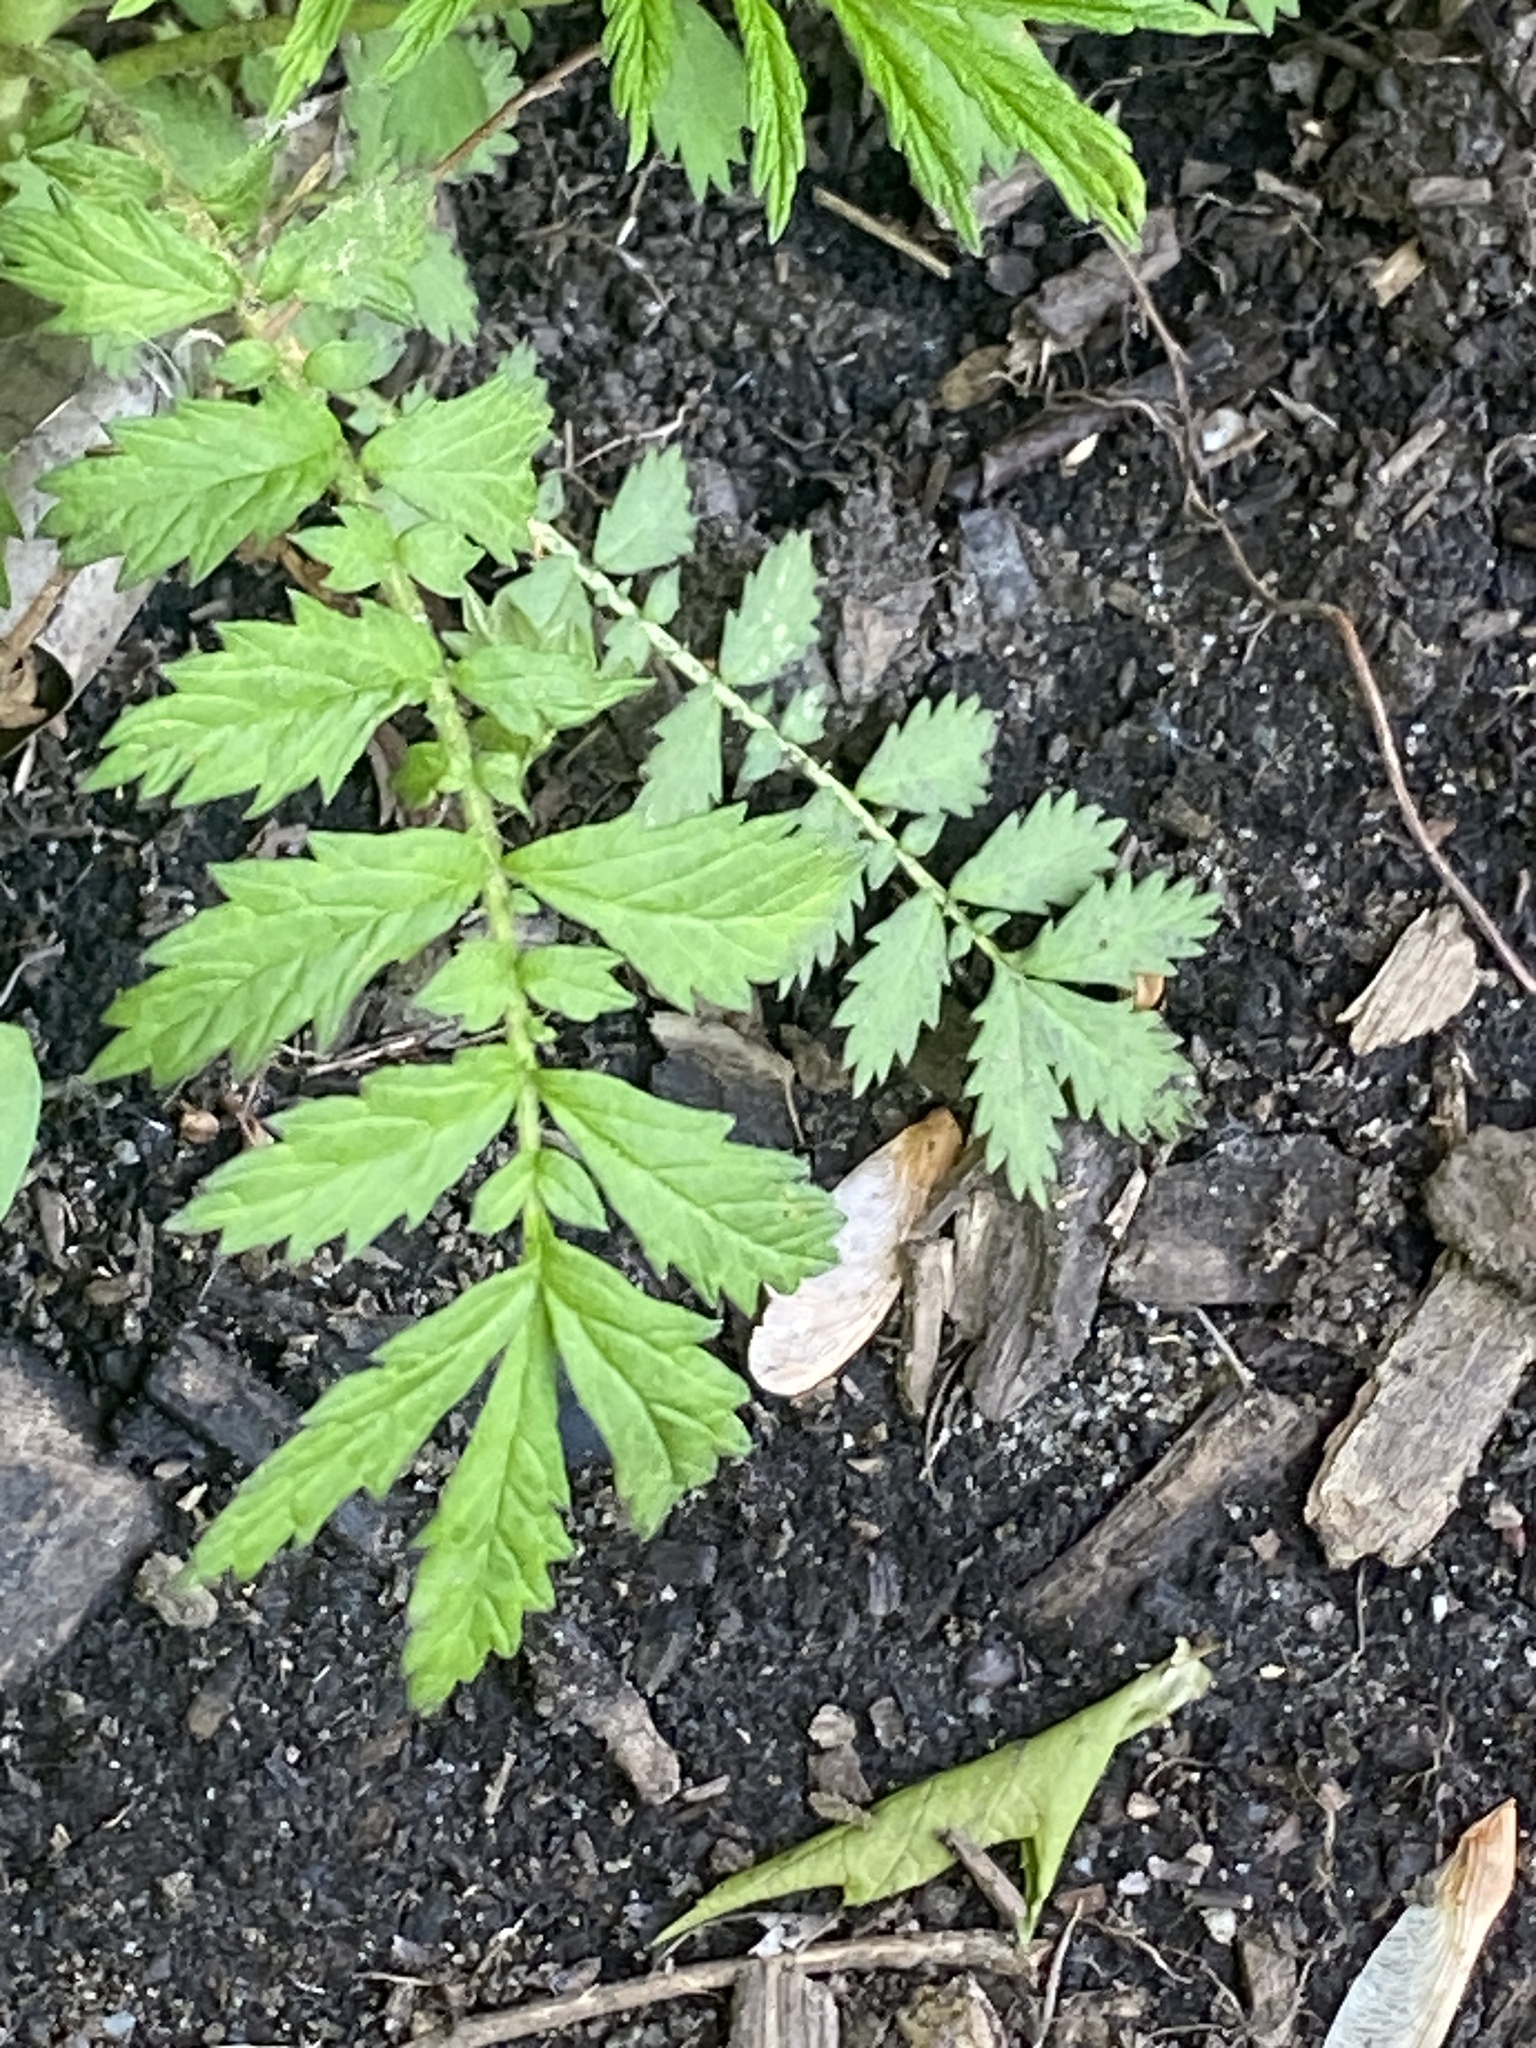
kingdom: Plantae
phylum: Tracheophyta
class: Magnoliopsida
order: Rosales
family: Rosaceae
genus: Agrimonia
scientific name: Agrimonia parviflora
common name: Harvest-lice
